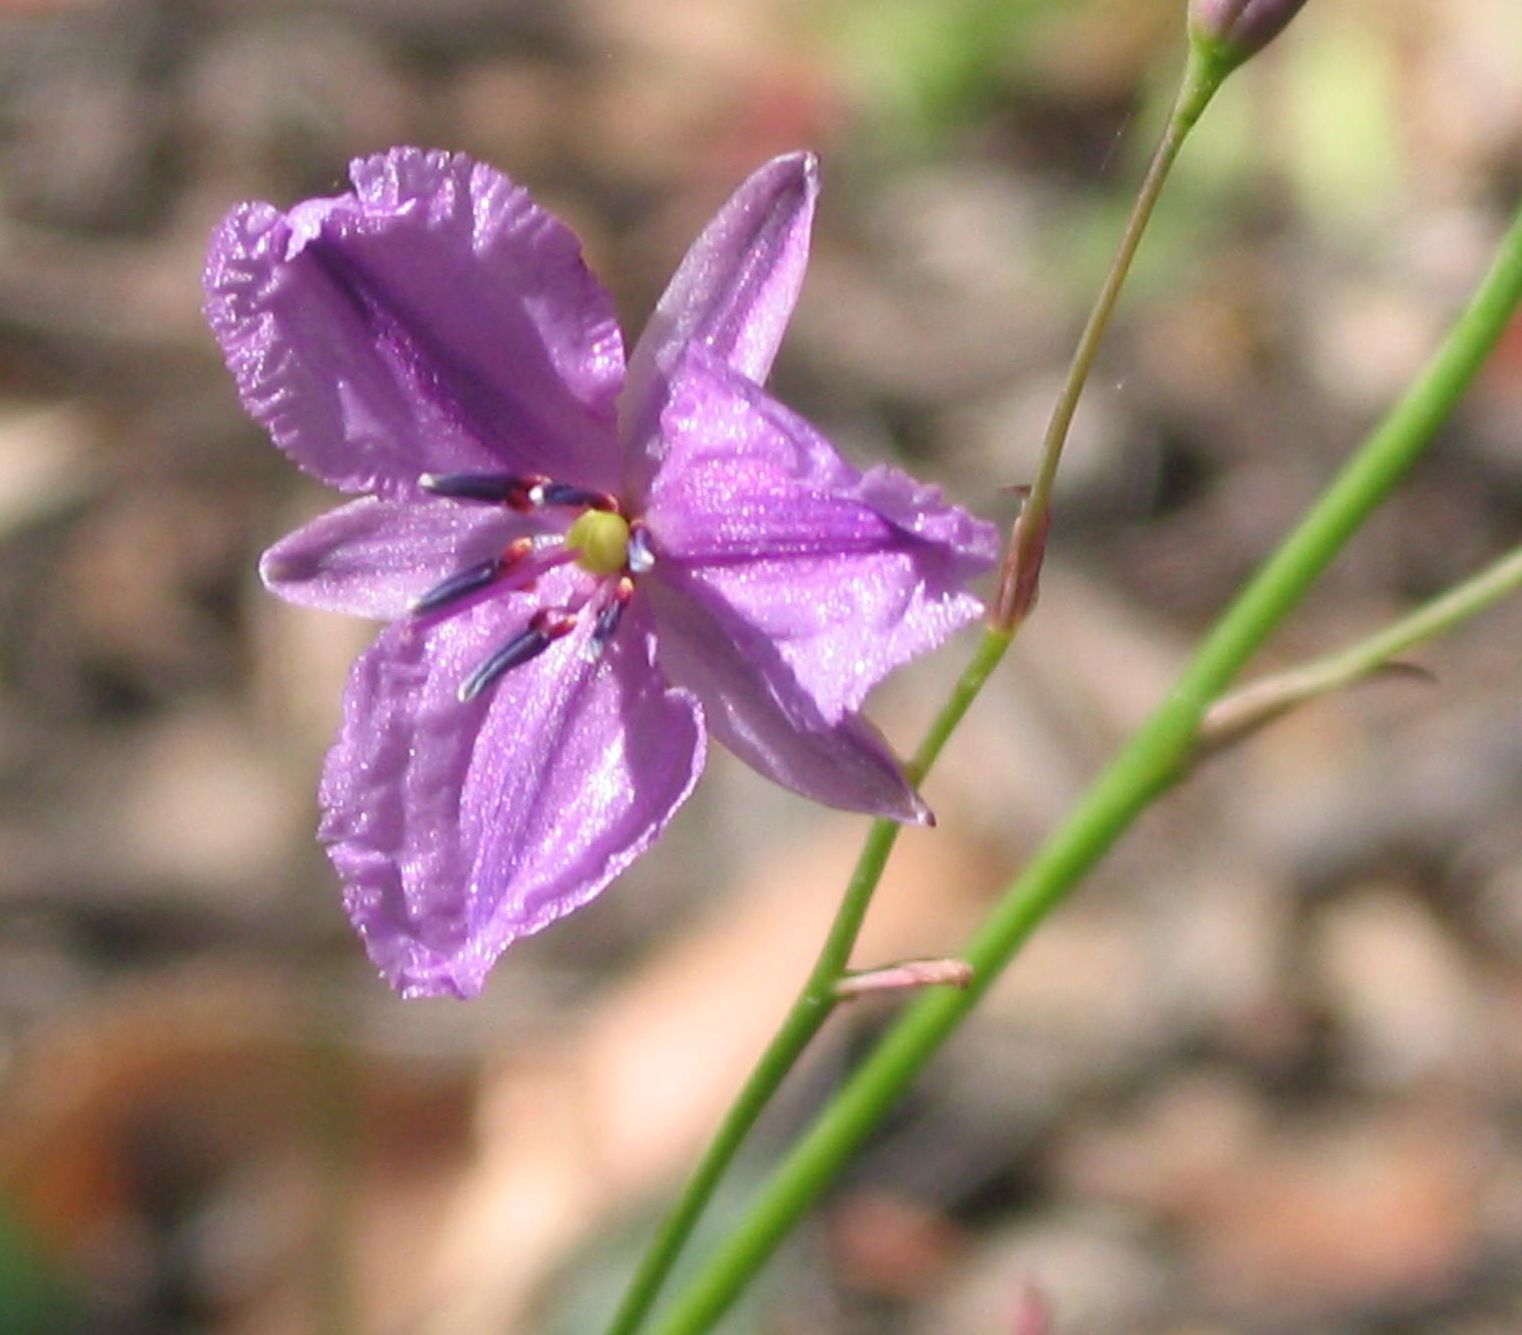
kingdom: Plantae
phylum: Tracheophyta
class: Liliopsida
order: Asparagales
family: Asparagaceae
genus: Arthropodium
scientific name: Arthropodium strictum
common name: Chocolate-lily
